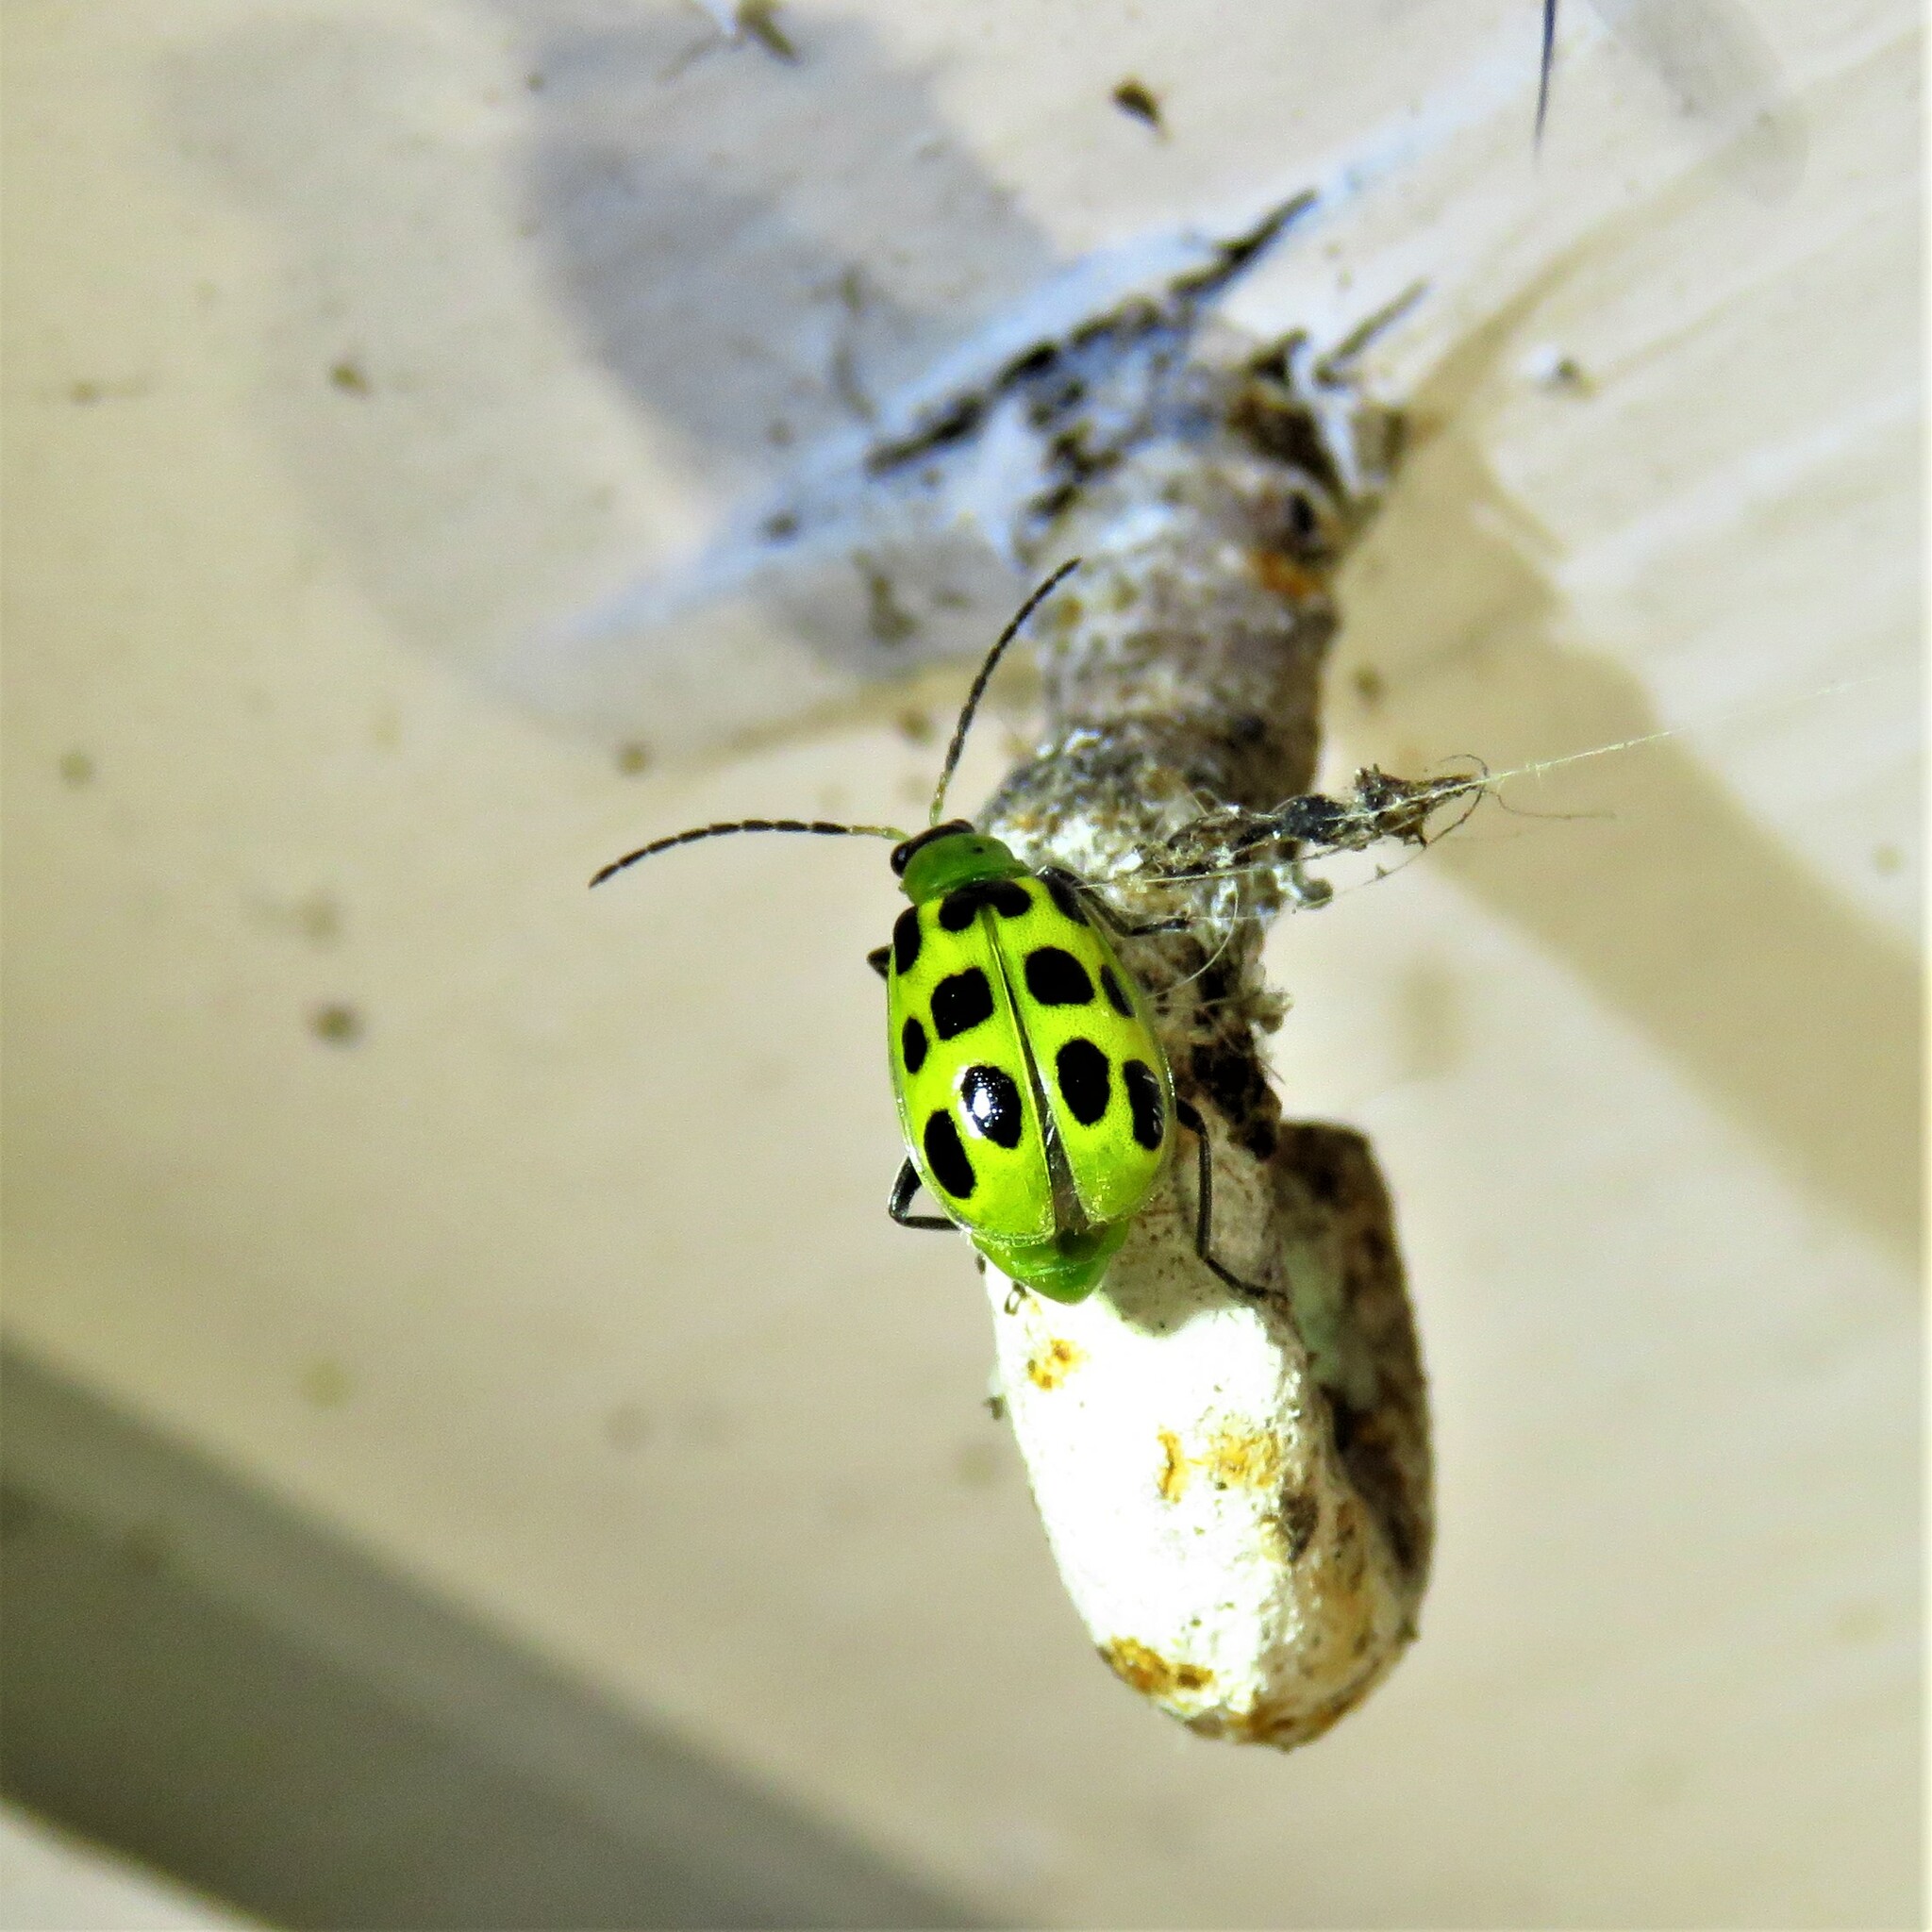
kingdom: Animalia
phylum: Arthropoda
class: Insecta
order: Coleoptera
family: Chrysomelidae
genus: Diabrotica
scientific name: Diabrotica undecimpunctata
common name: Spotted cucumber beetle
